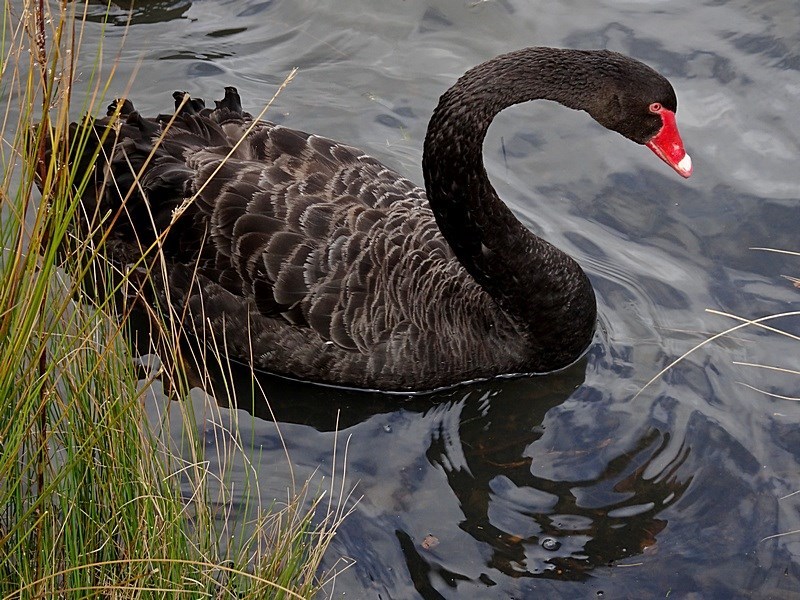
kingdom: Animalia
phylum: Chordata
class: Aves
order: Anseriformes
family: Anatidae
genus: Cygnus
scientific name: Cygnus atratus
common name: Black swan
